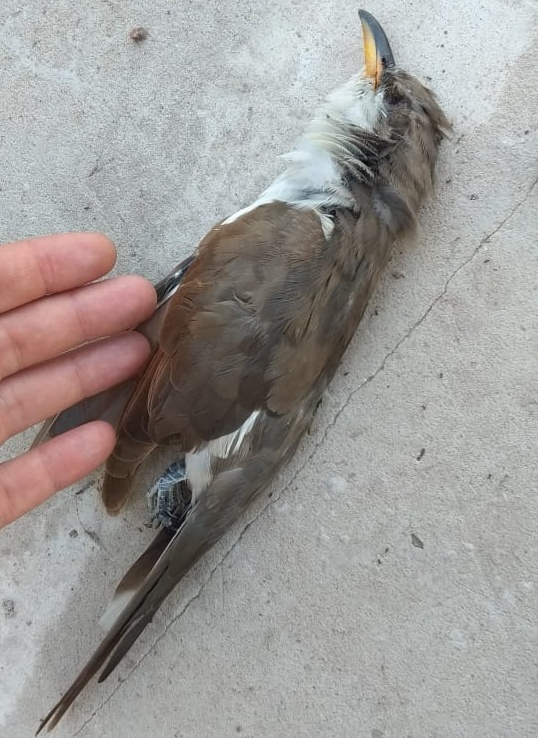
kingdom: Animalia
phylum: Chordata
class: Aves
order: Cuculiformes
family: Cuculidae
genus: Coccyzus
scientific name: Coccyzus americanus
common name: Yellow-billed cuckoo
